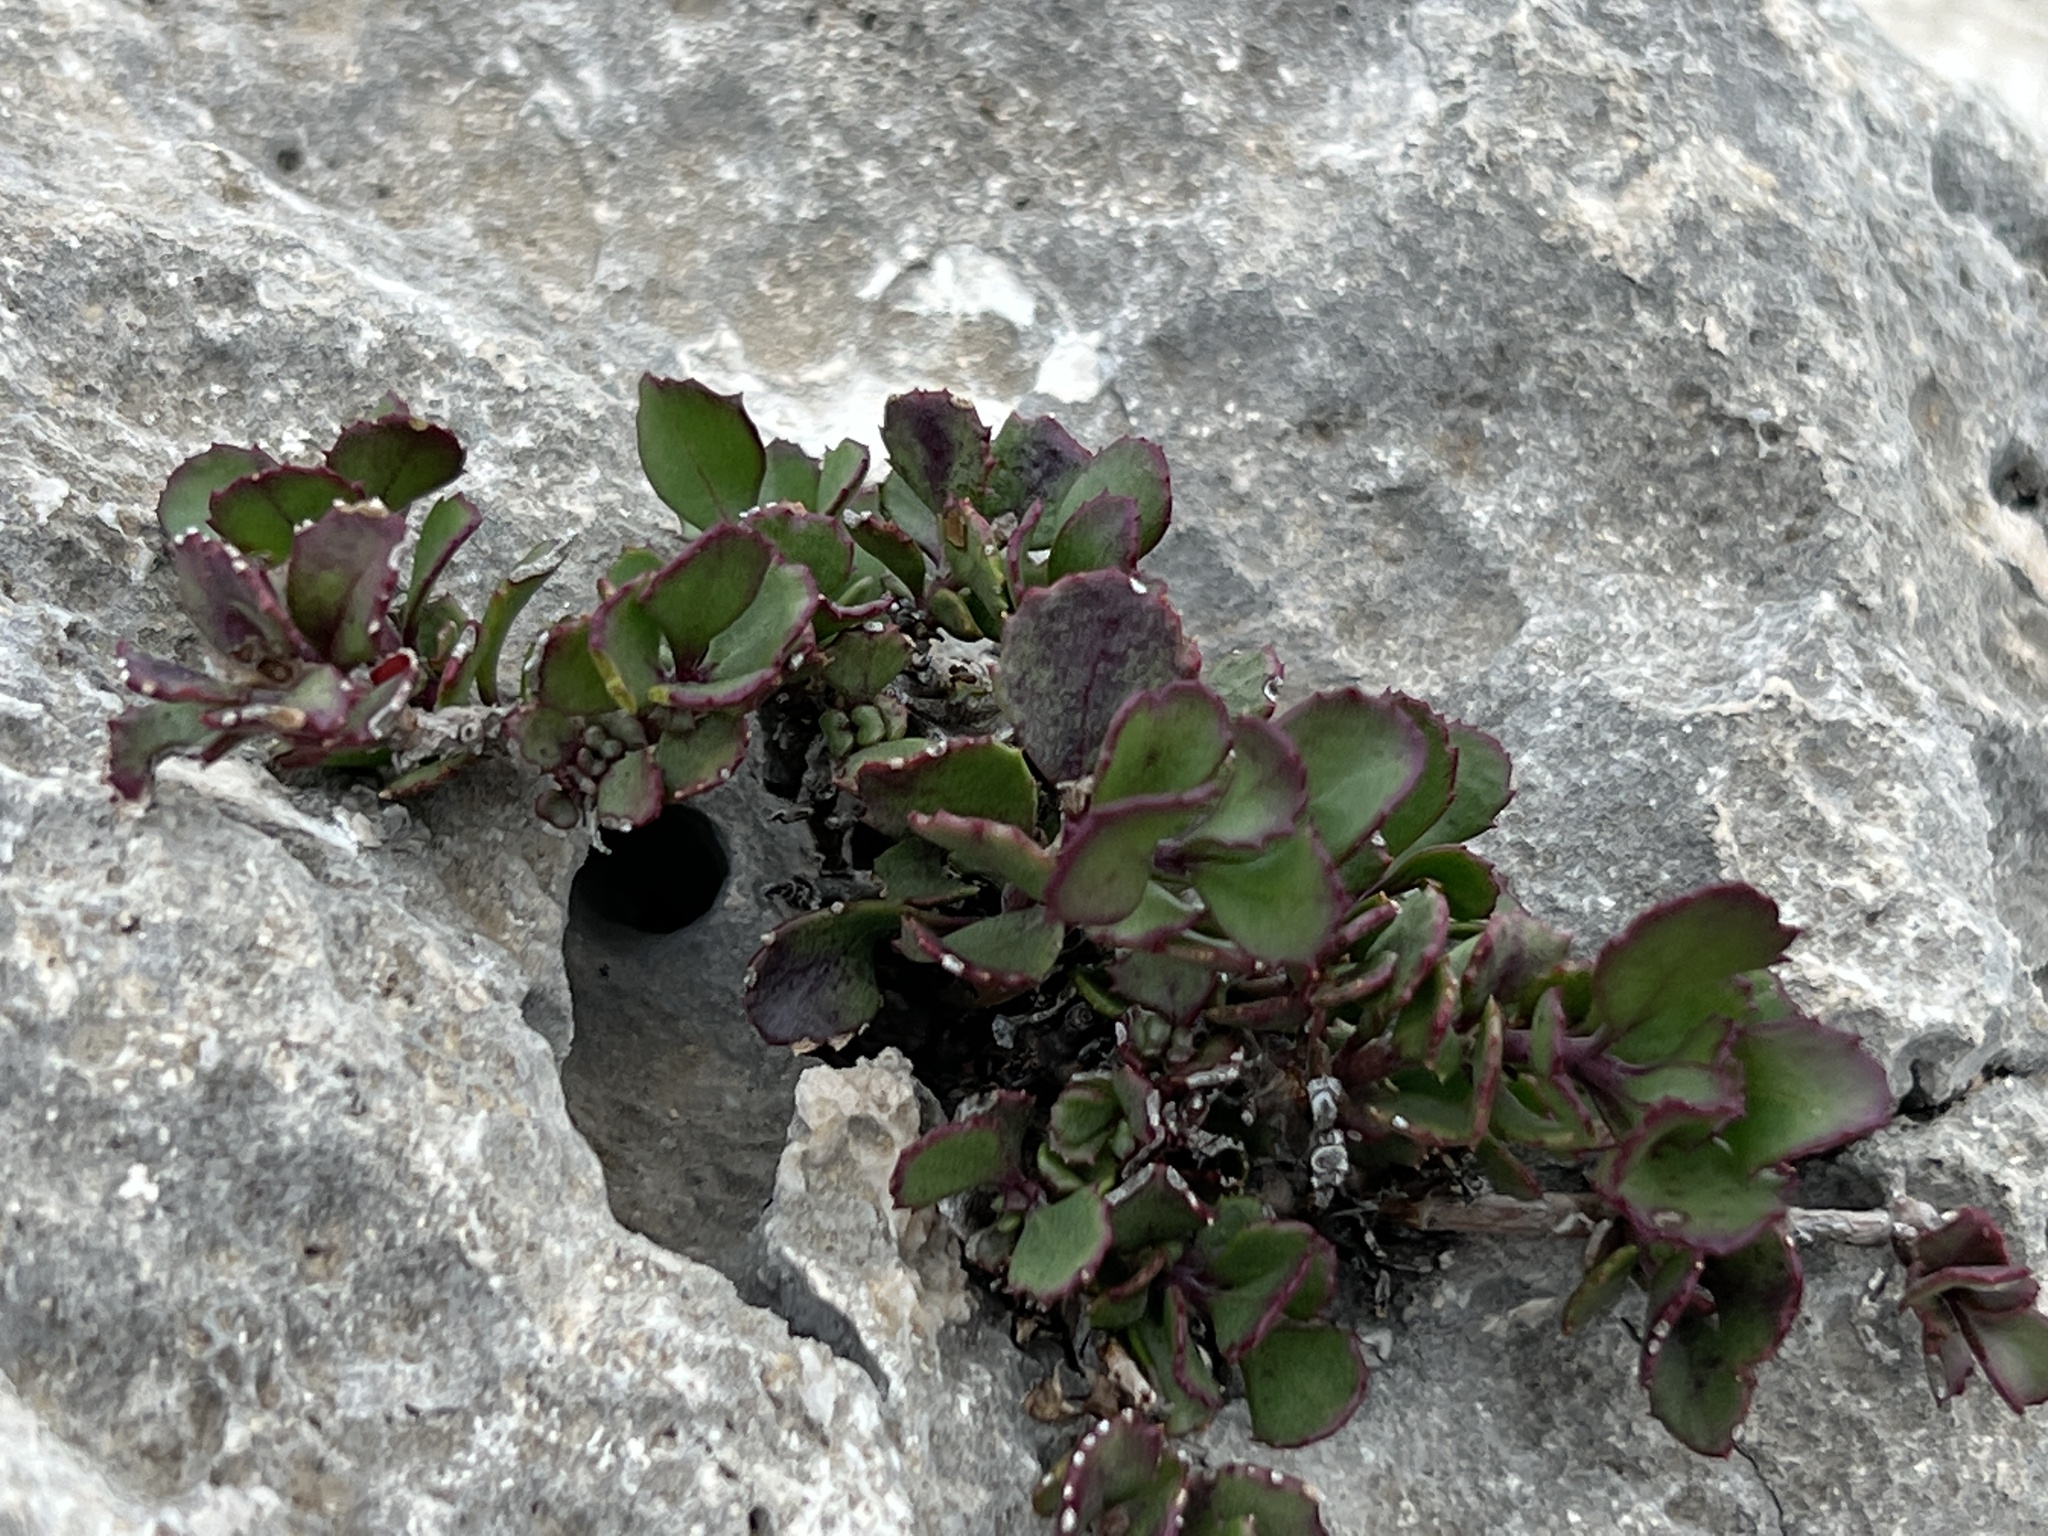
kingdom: Plantae
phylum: Tracheophyta
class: Magnoliopsida
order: Lamiales
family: Plantaginaceae
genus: Penstemon
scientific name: Penstemon baccharifolius
